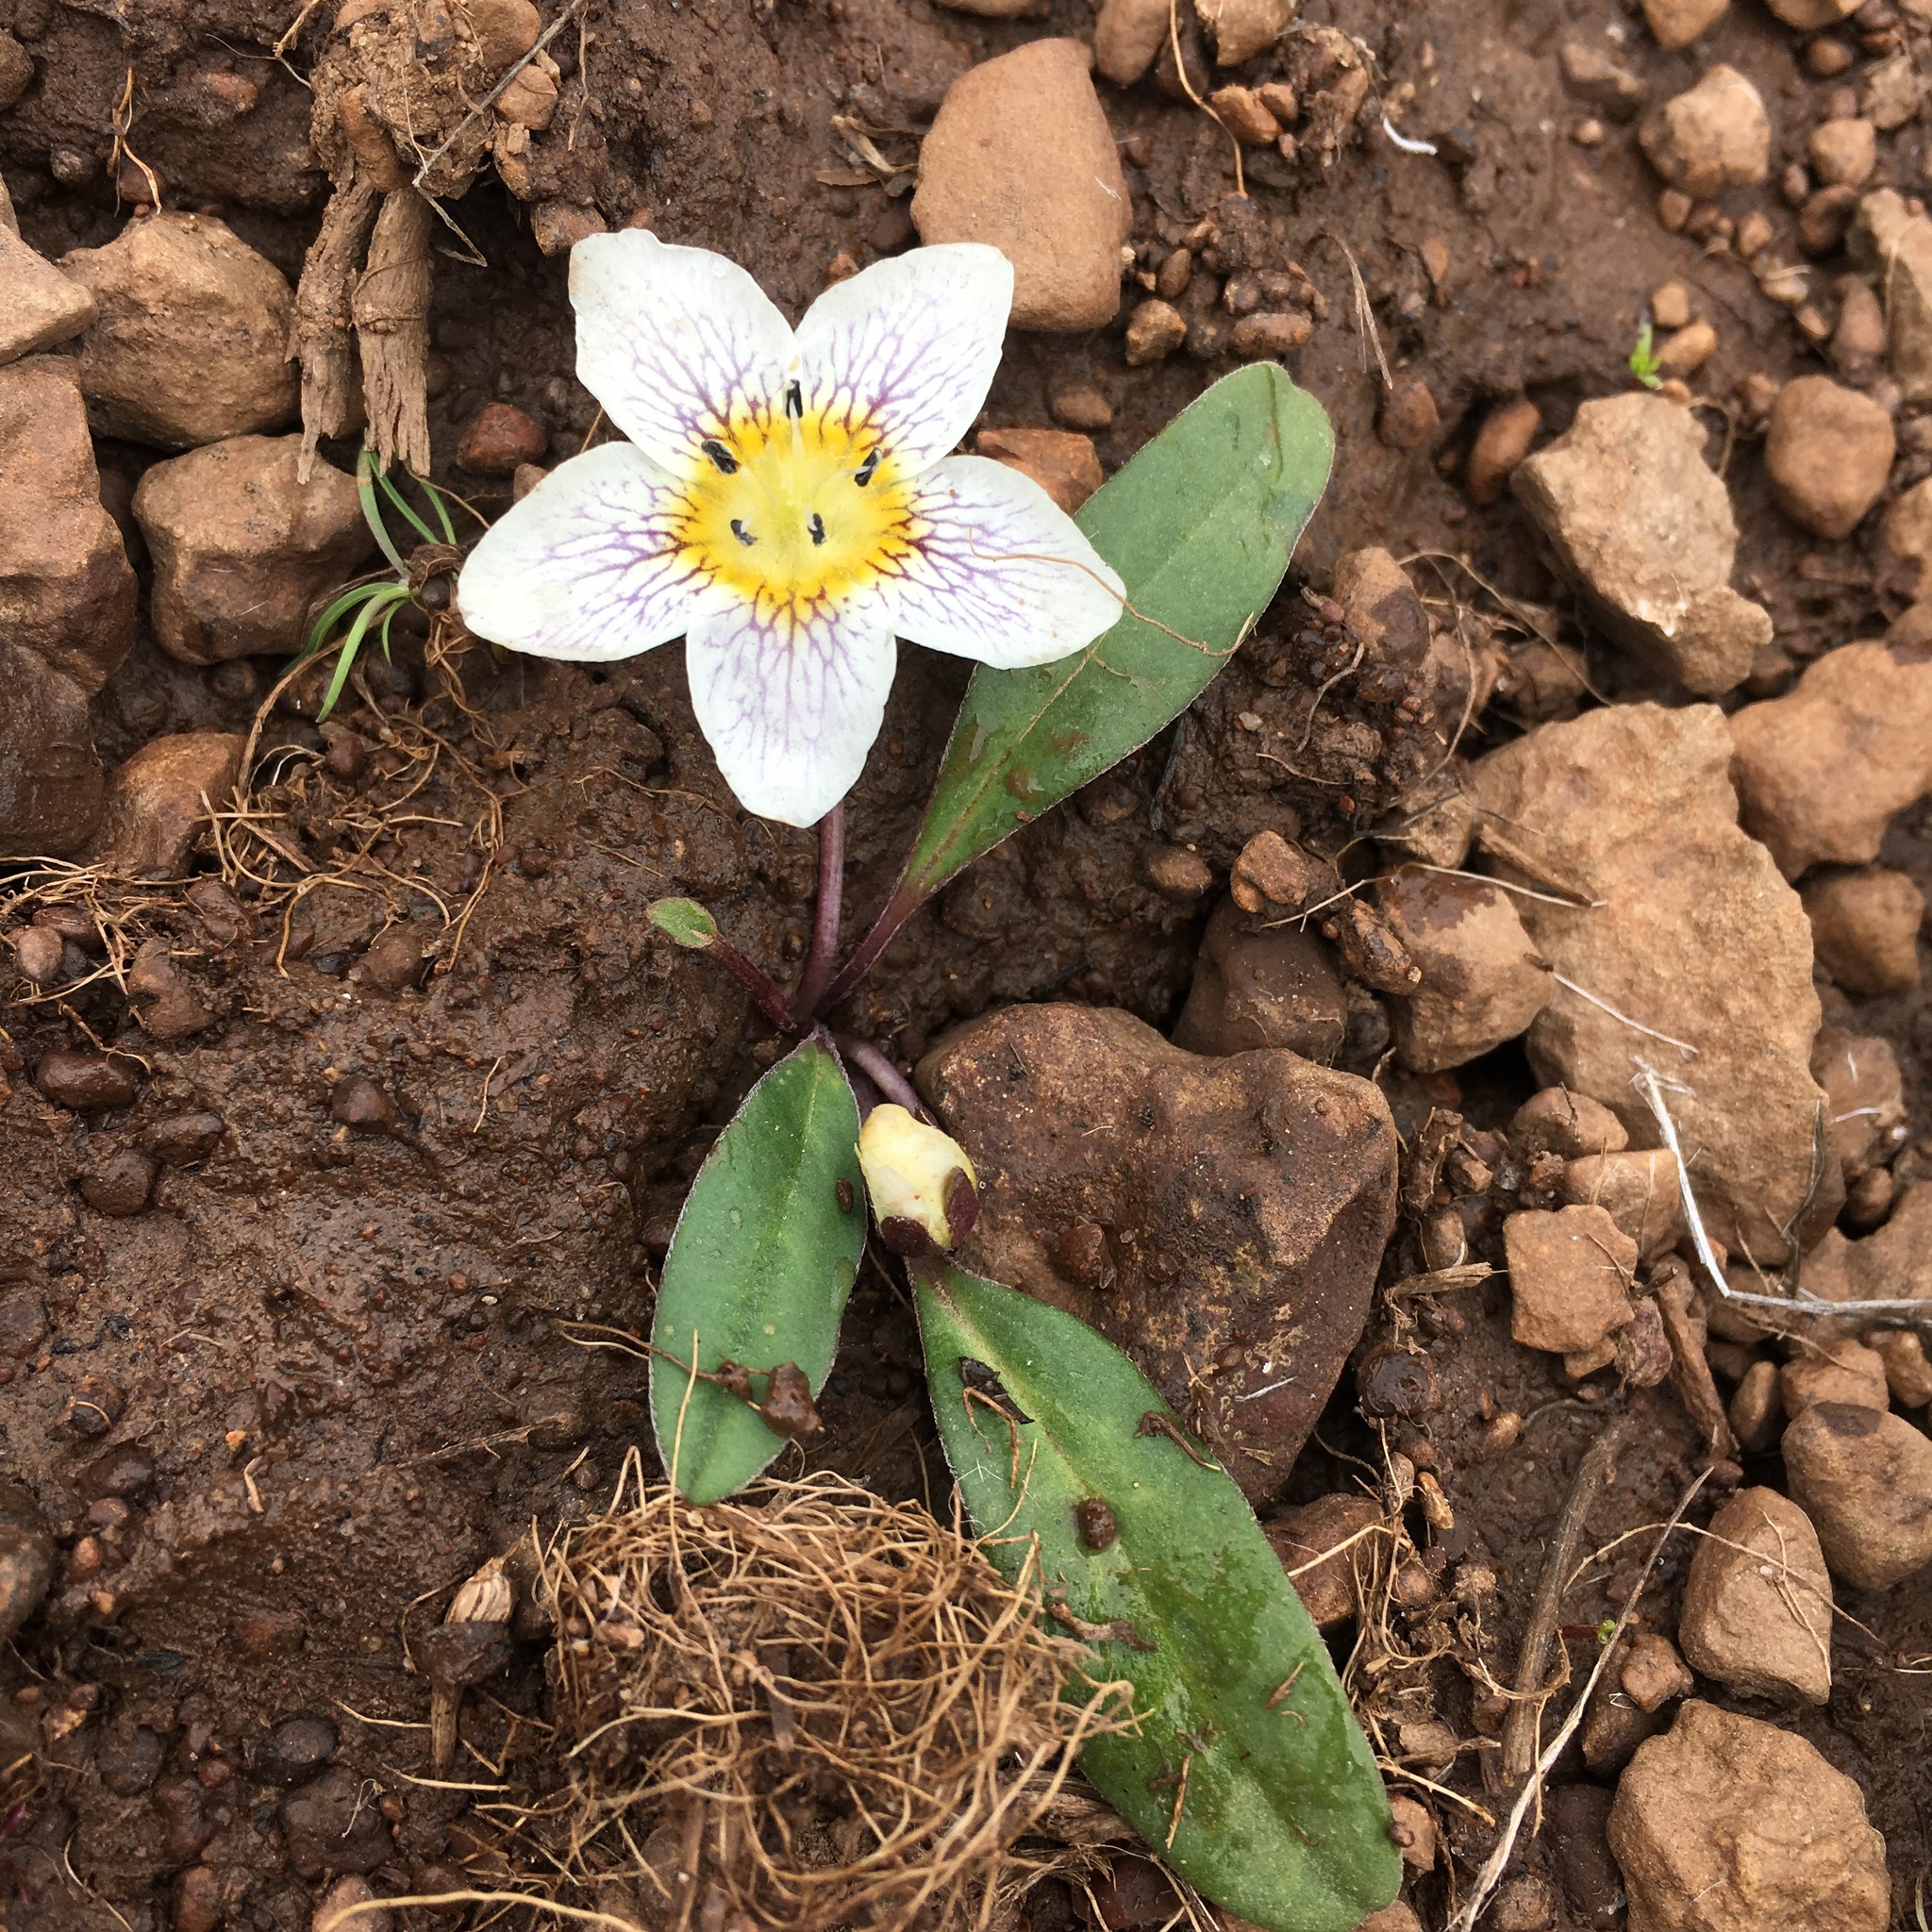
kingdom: Plantae
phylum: Tracheophyta
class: Magnoliopsida
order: Boraginales
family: Hydrophyllaceae
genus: Hesperochiron
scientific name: Hesperochiron pumilus
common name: Dwarf hesperochiron
